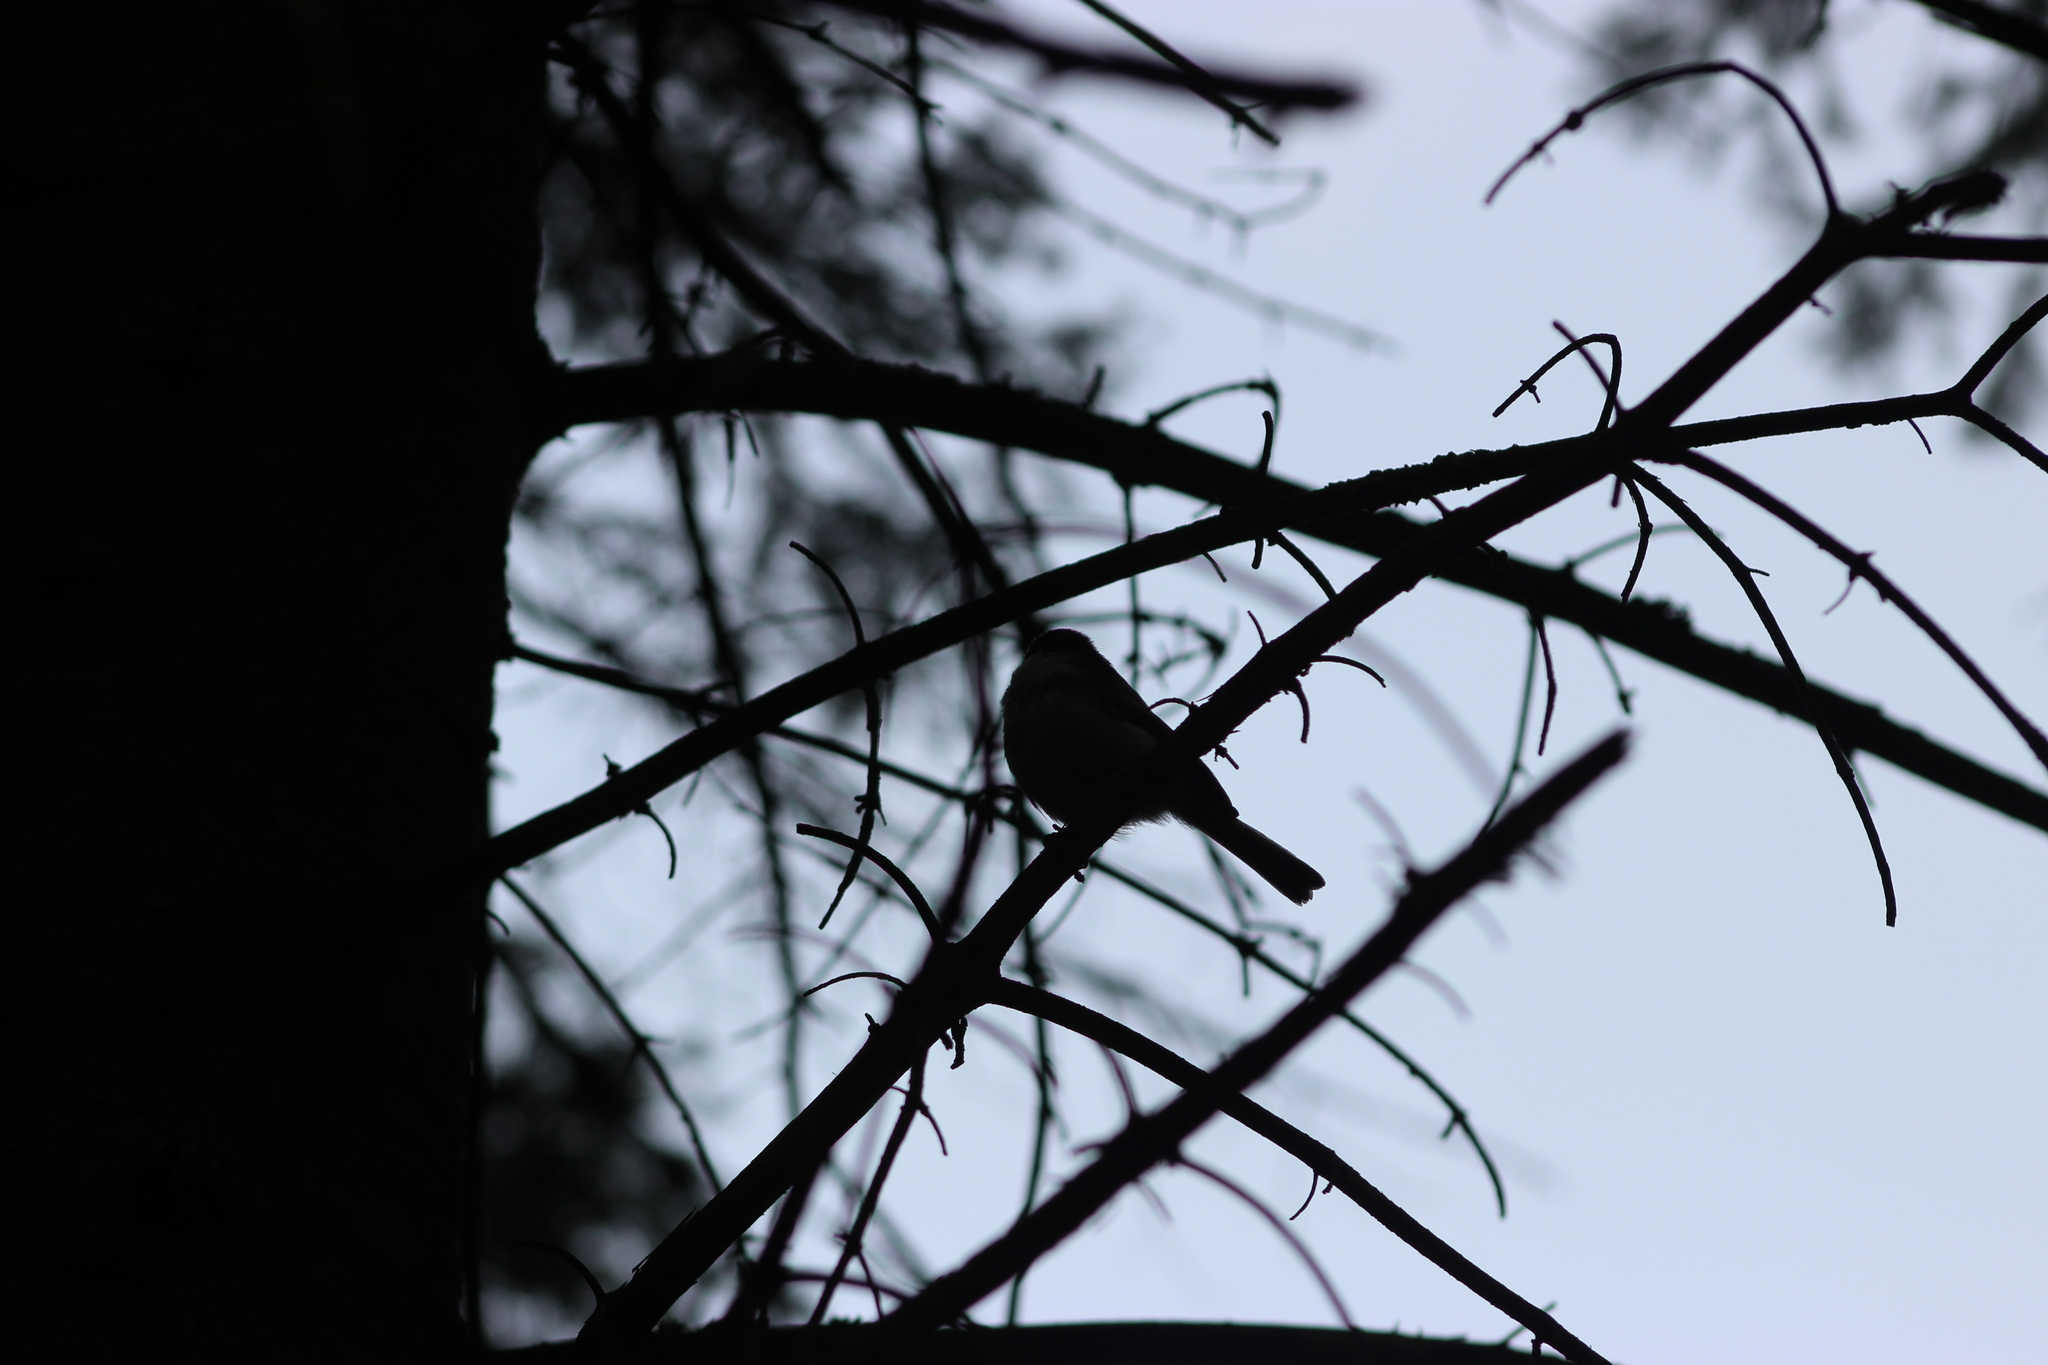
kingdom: Animalia
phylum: Chordata
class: Aves
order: Passeriformes
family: Paridae
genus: Poecile
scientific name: Poecile montanus
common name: Willow tit
